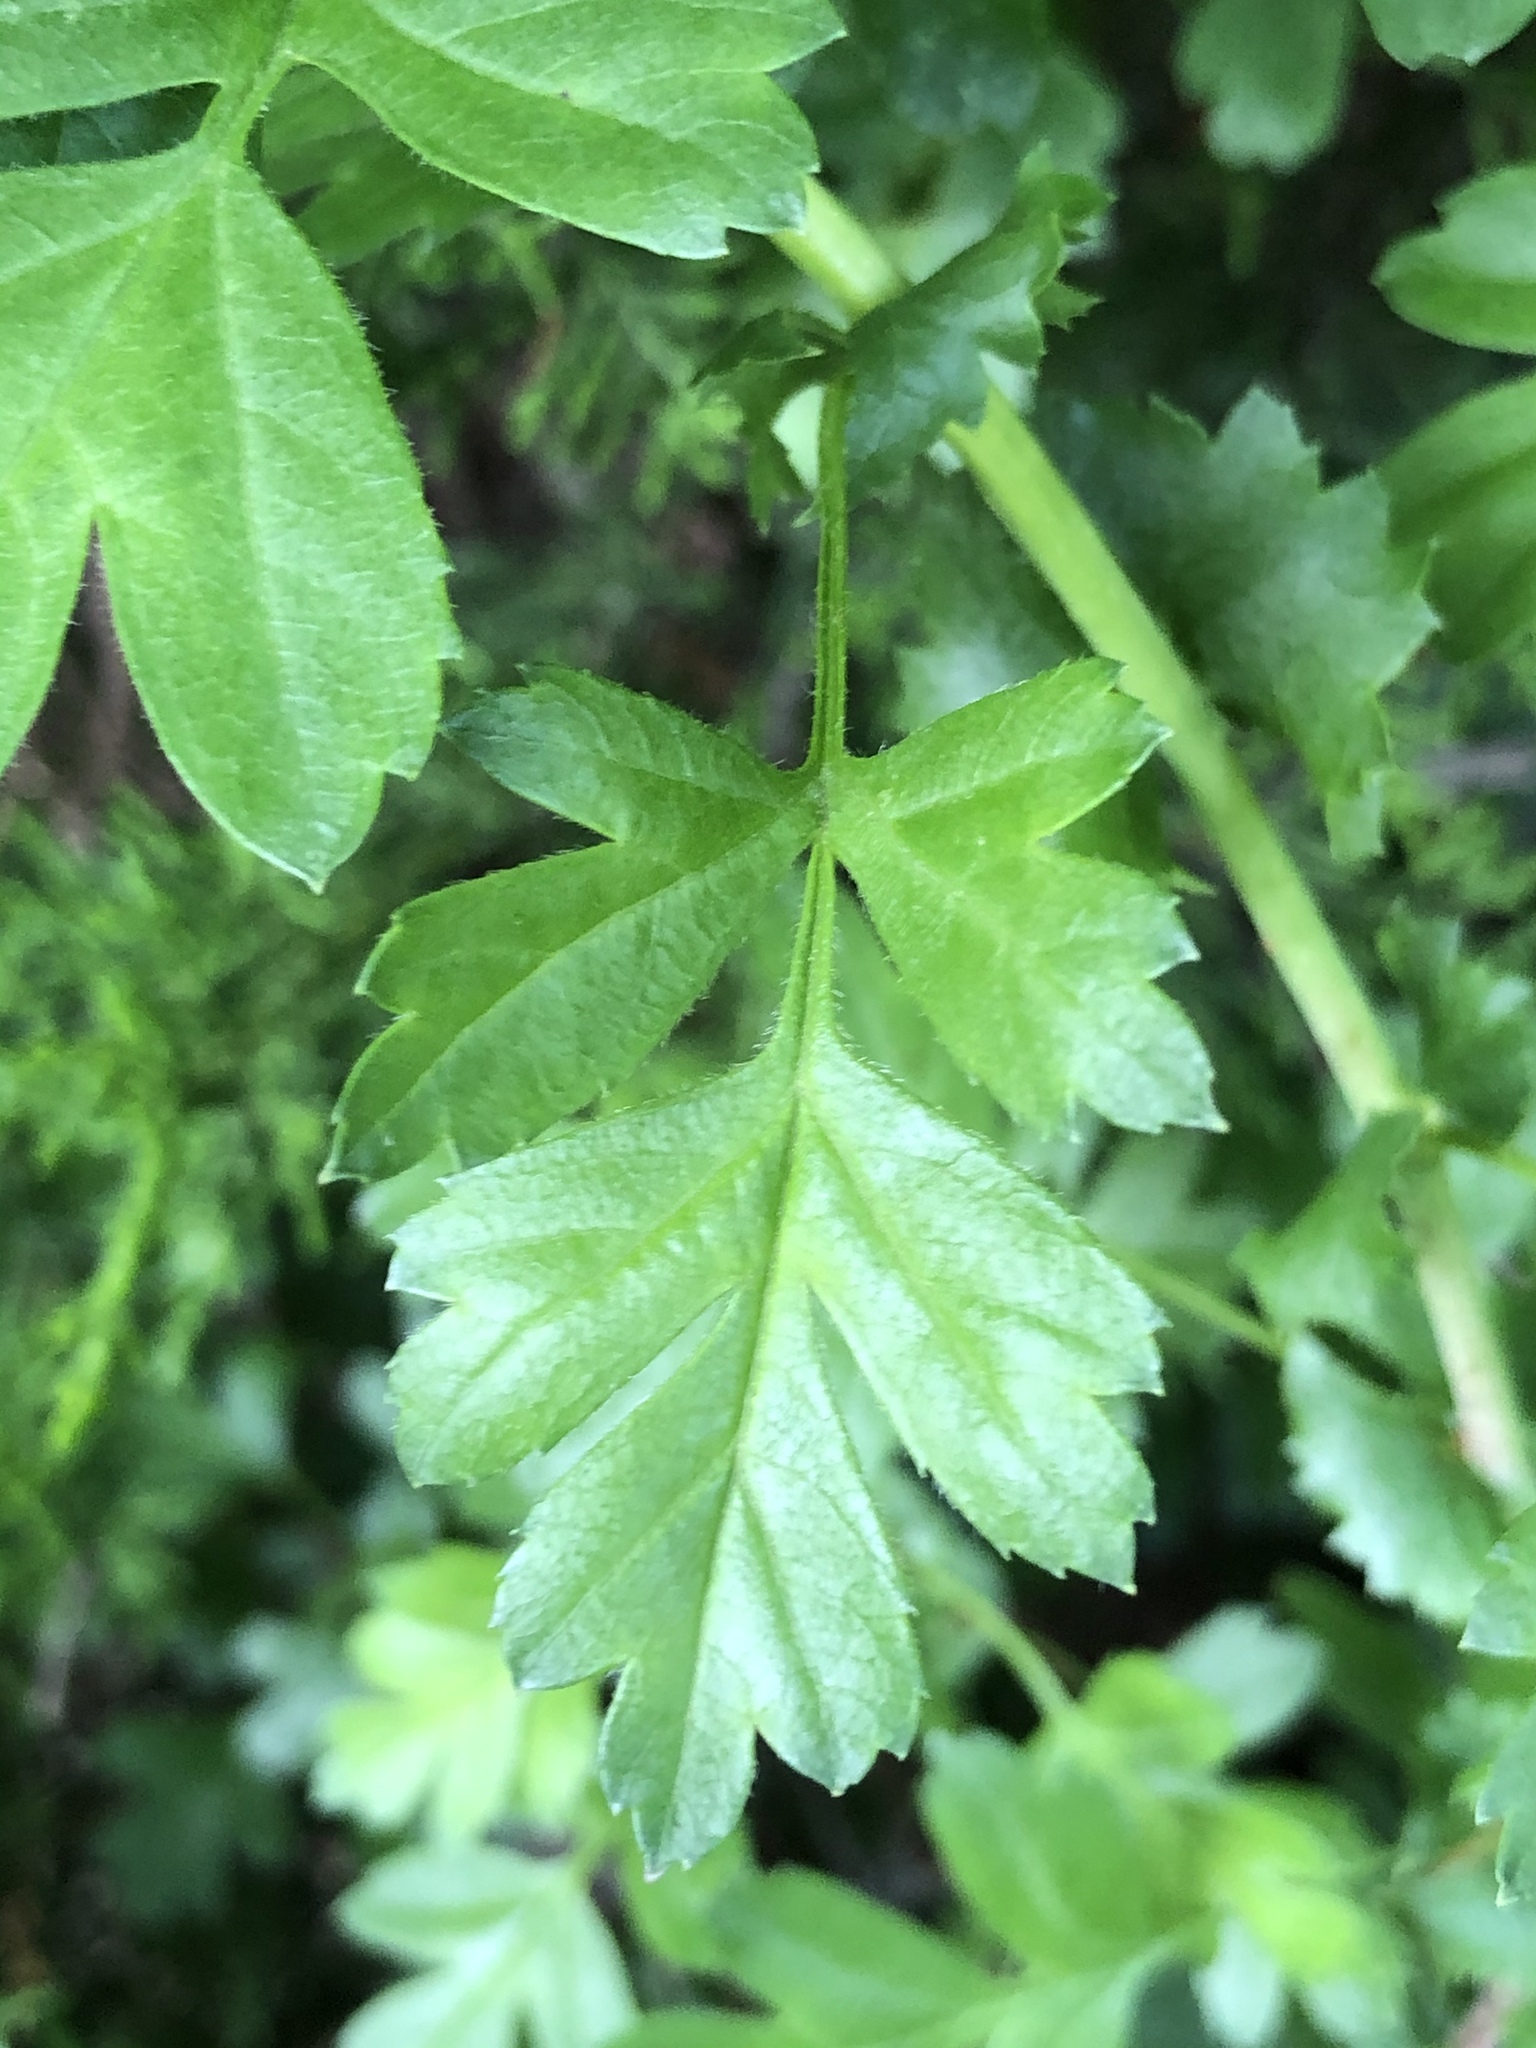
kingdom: Plantae
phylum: Tracheophyta
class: Magnoliopsida
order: Rosales
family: Rosaceae
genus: Crataegus
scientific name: Crataegus monogyna
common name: Hawthorn
